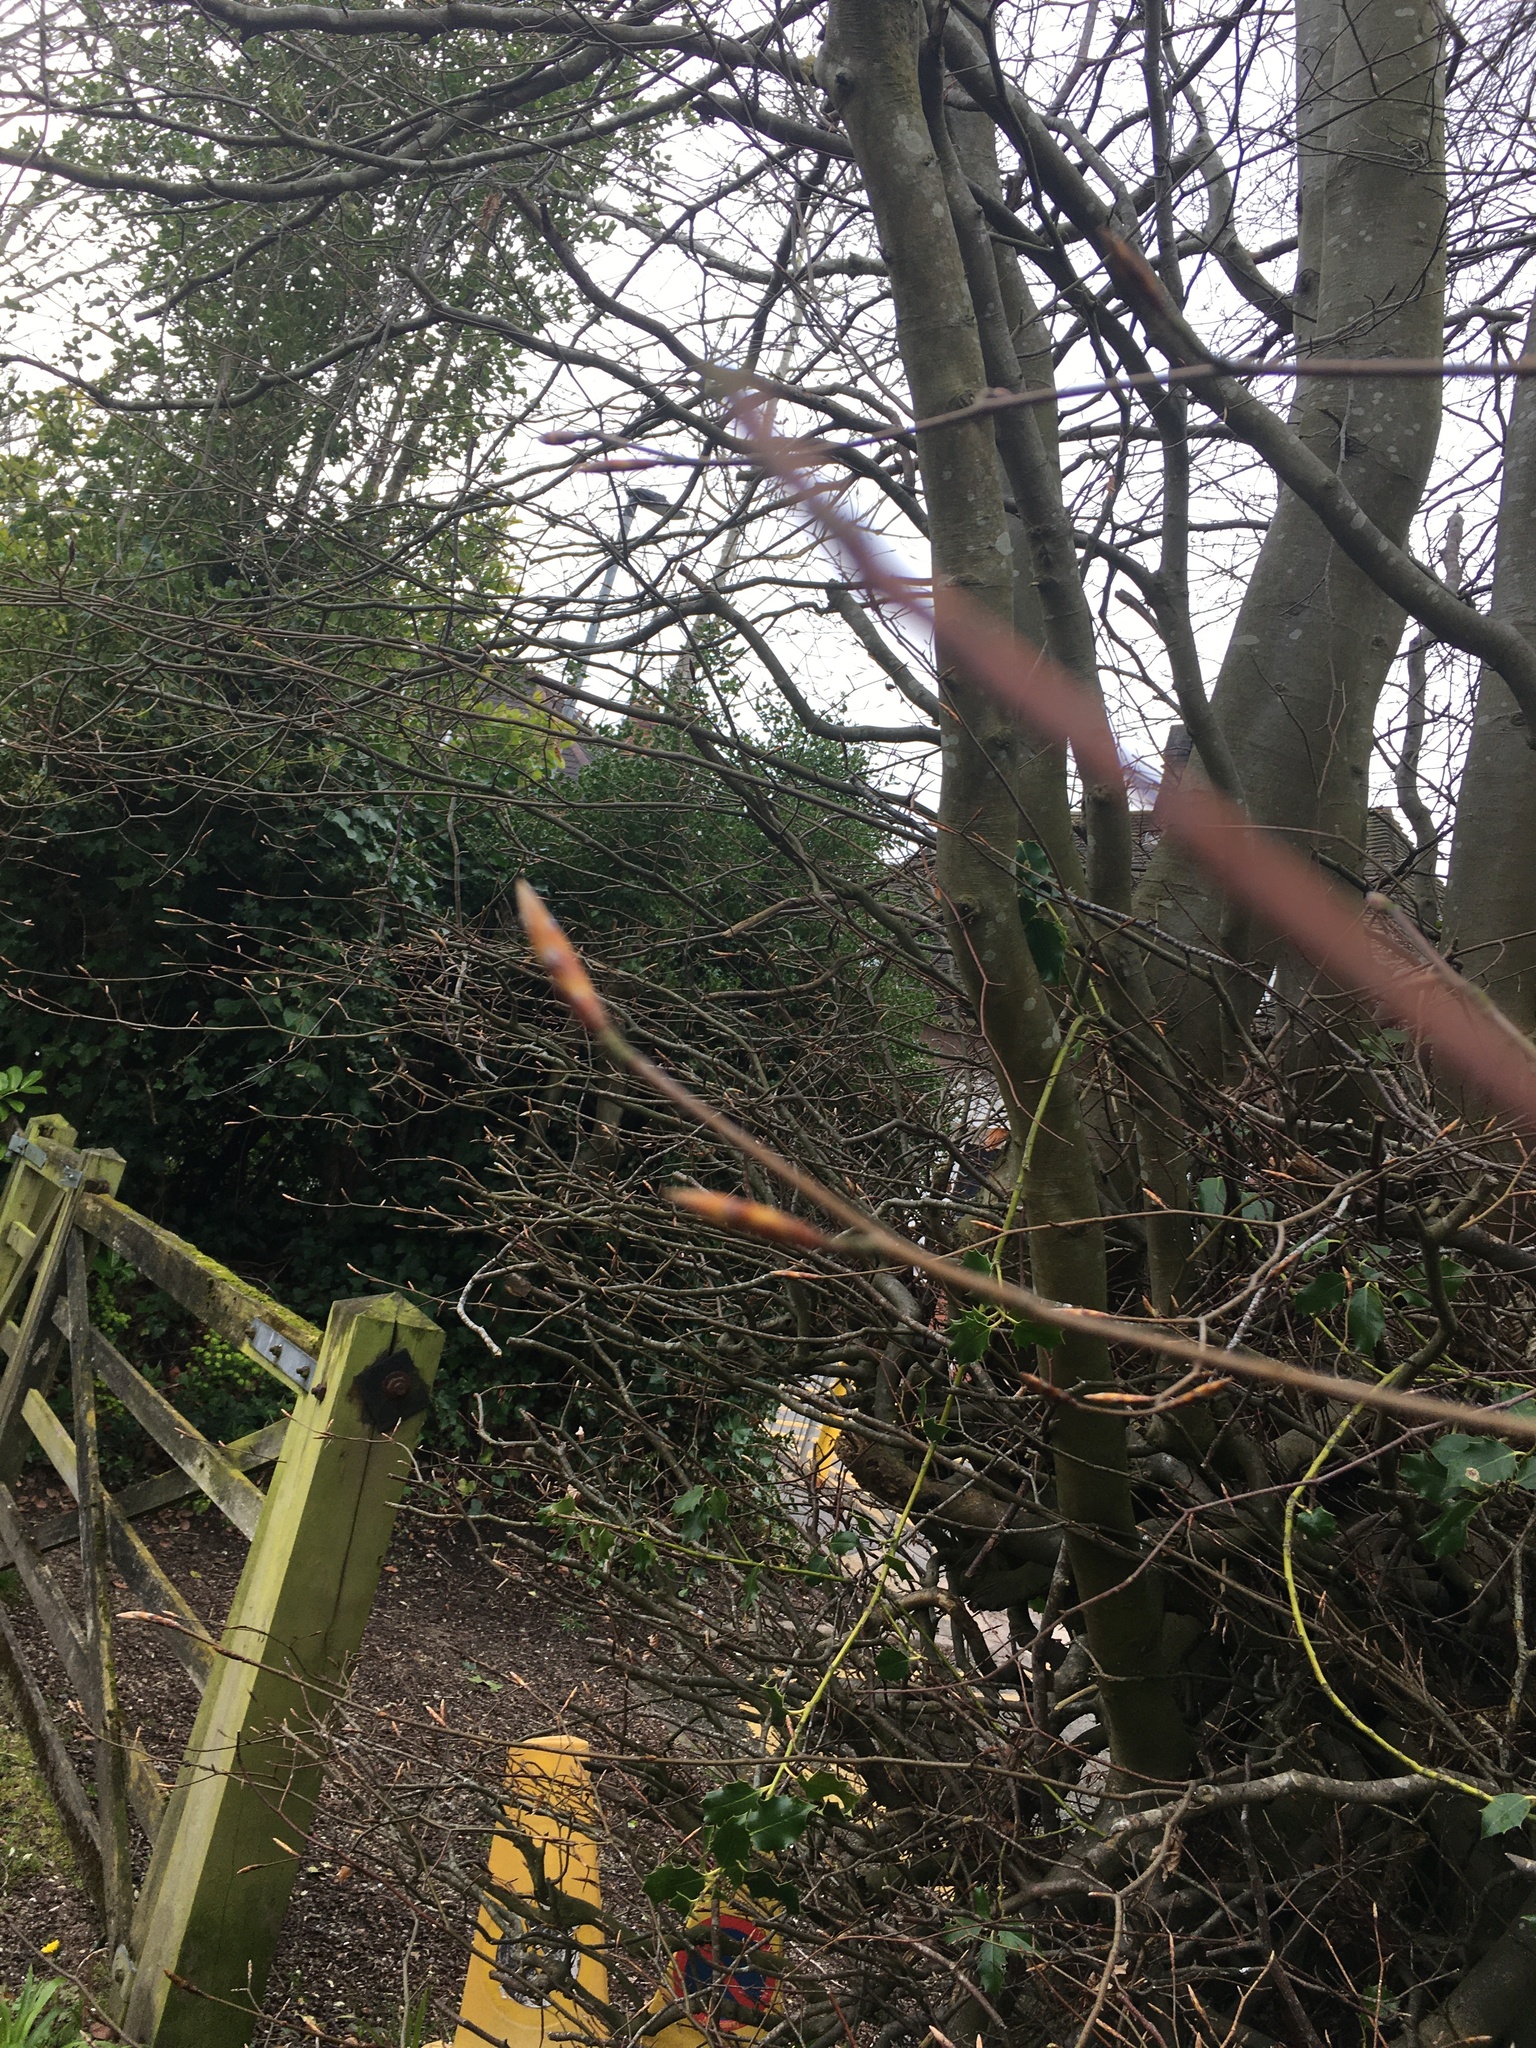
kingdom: Plantae
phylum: Tracheophyta
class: Magnoliopsida
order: Fagales
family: Fagaceae
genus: Fagus
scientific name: Fagus sylvatica
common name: Beech
